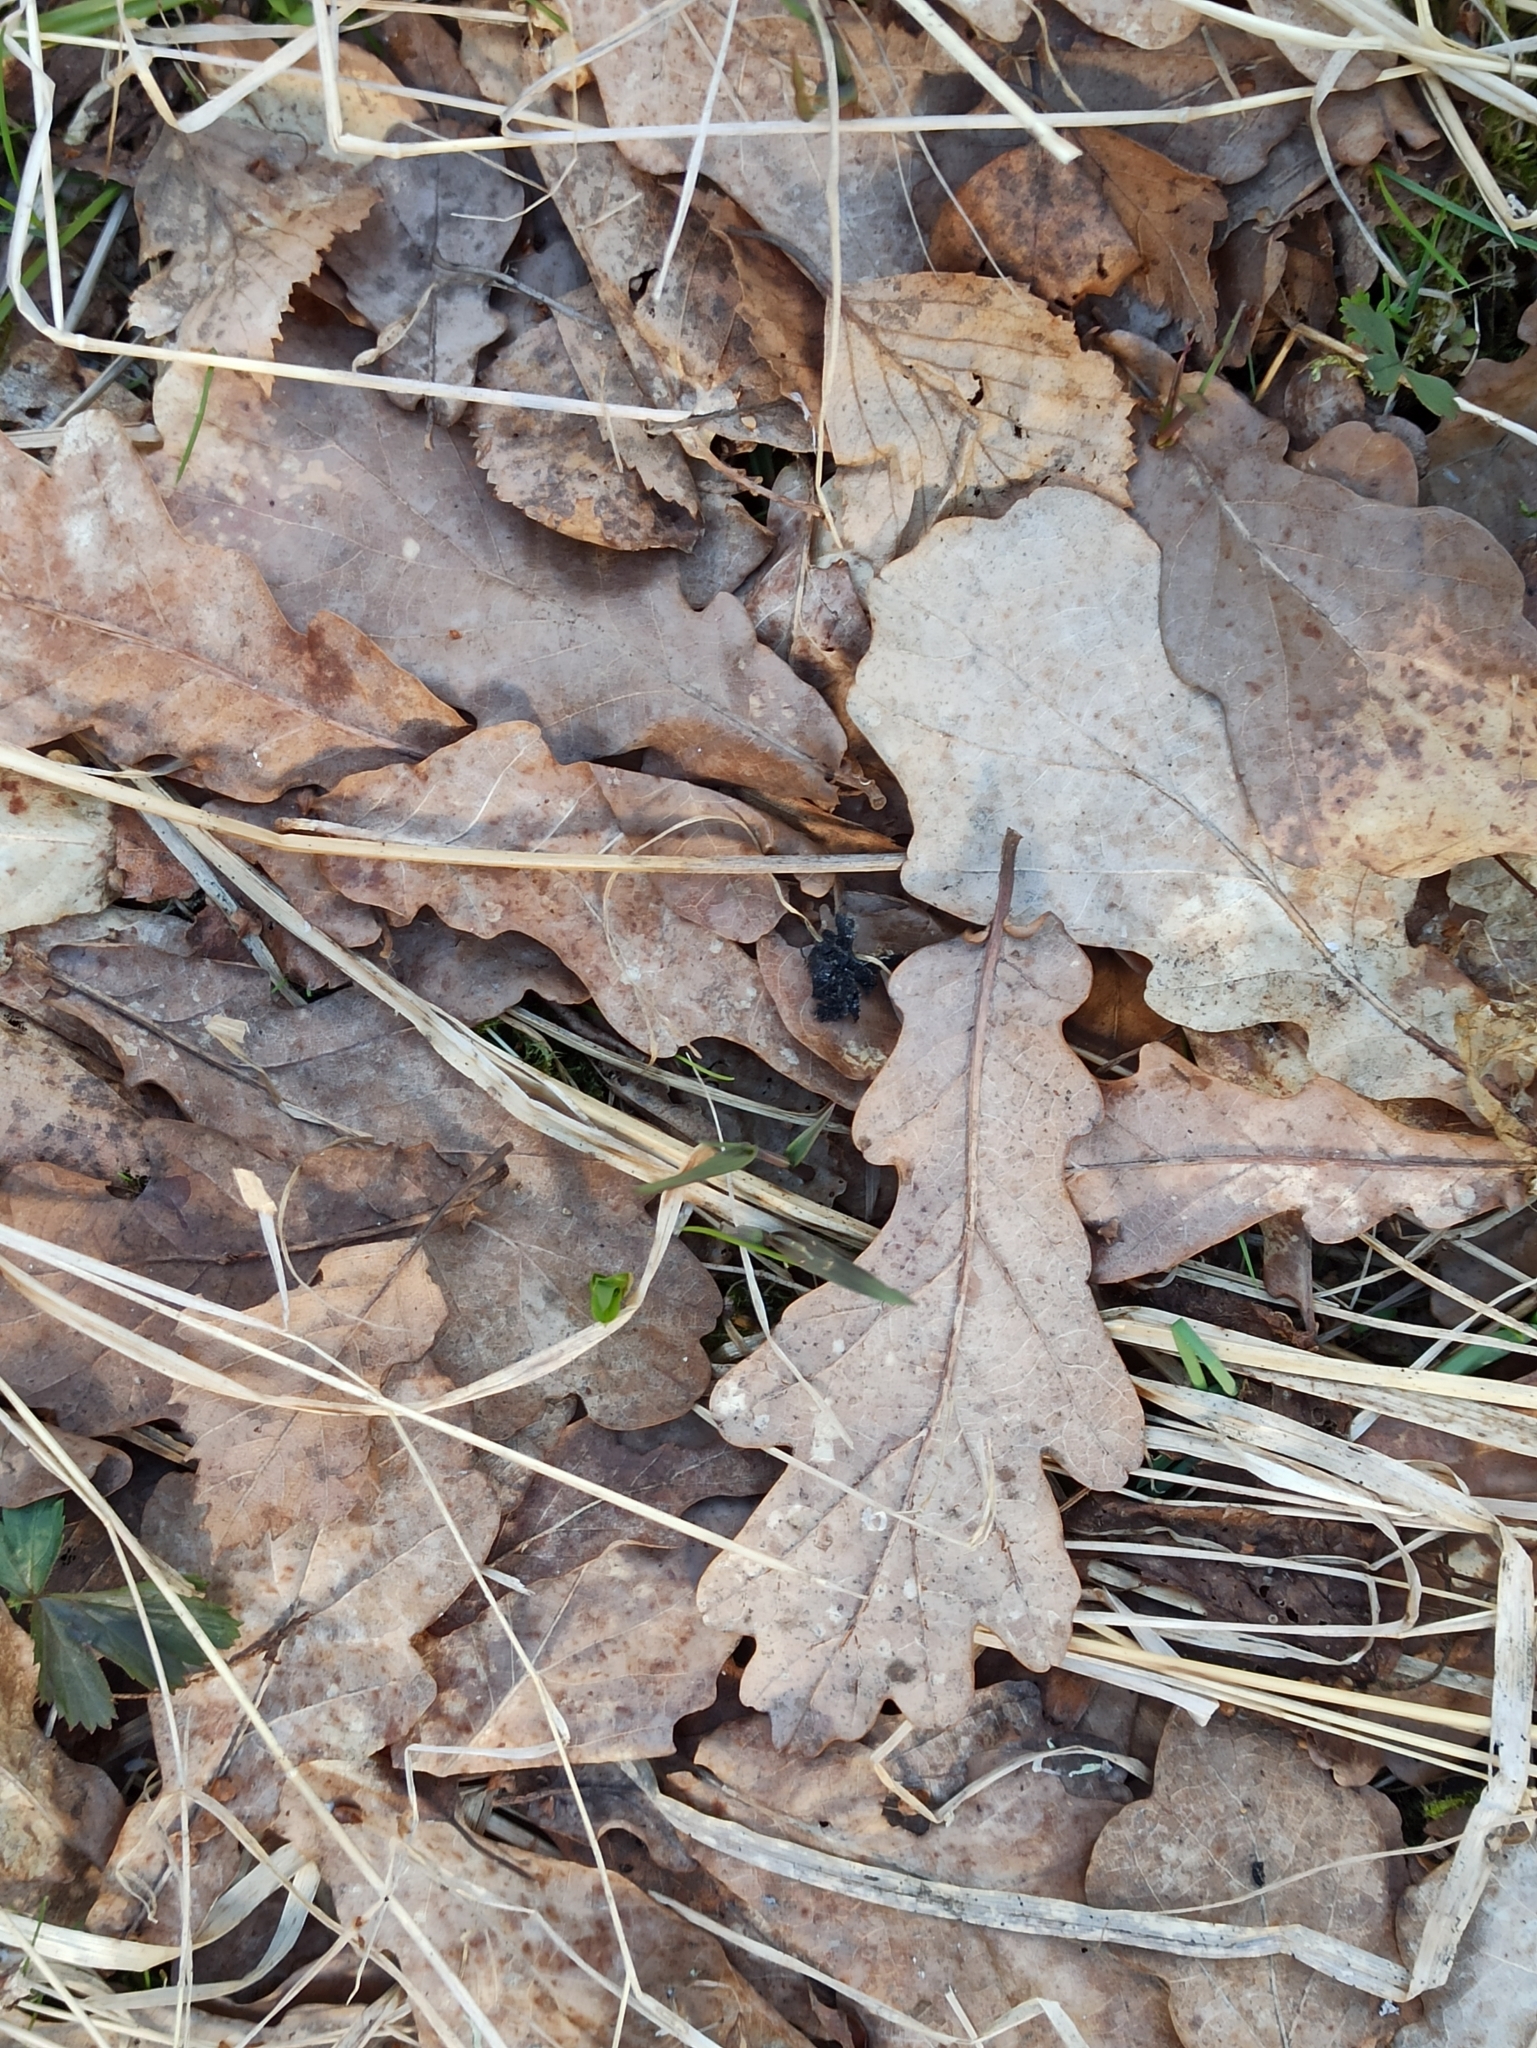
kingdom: Plantae
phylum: Tracheophyta
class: Magnoliopsida
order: Fagales
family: Fagaceae
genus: Quercus
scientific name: Quercus robur
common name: Pedunculate oak
